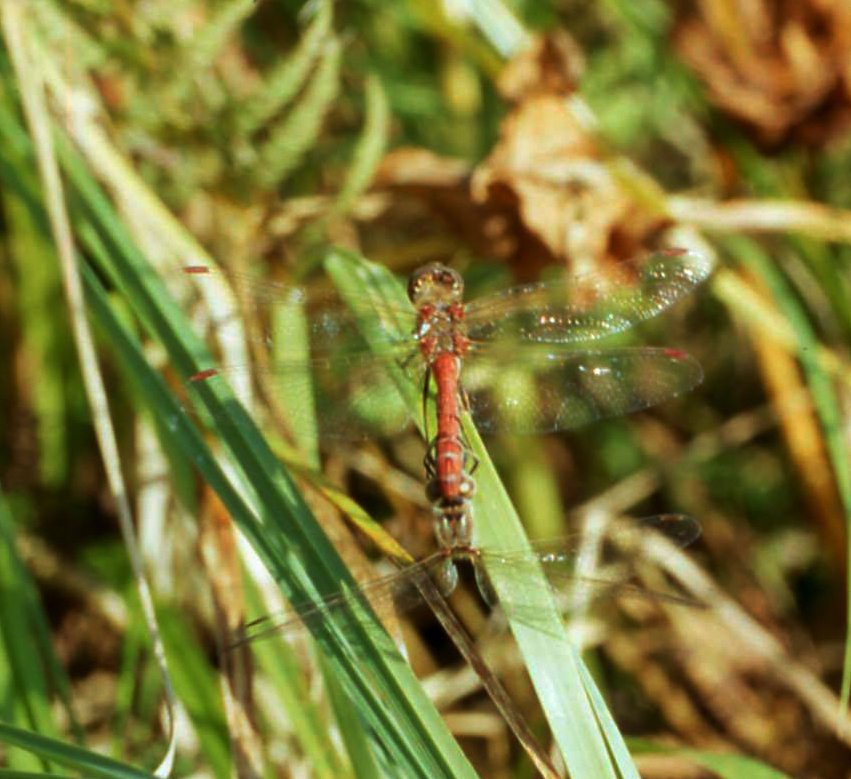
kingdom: Animalia
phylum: Arthropoda
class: Insecta
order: Odonata
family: Libellulidae
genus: Sympetrum
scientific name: Sympetrum vulgatum
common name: Vagrant darter
